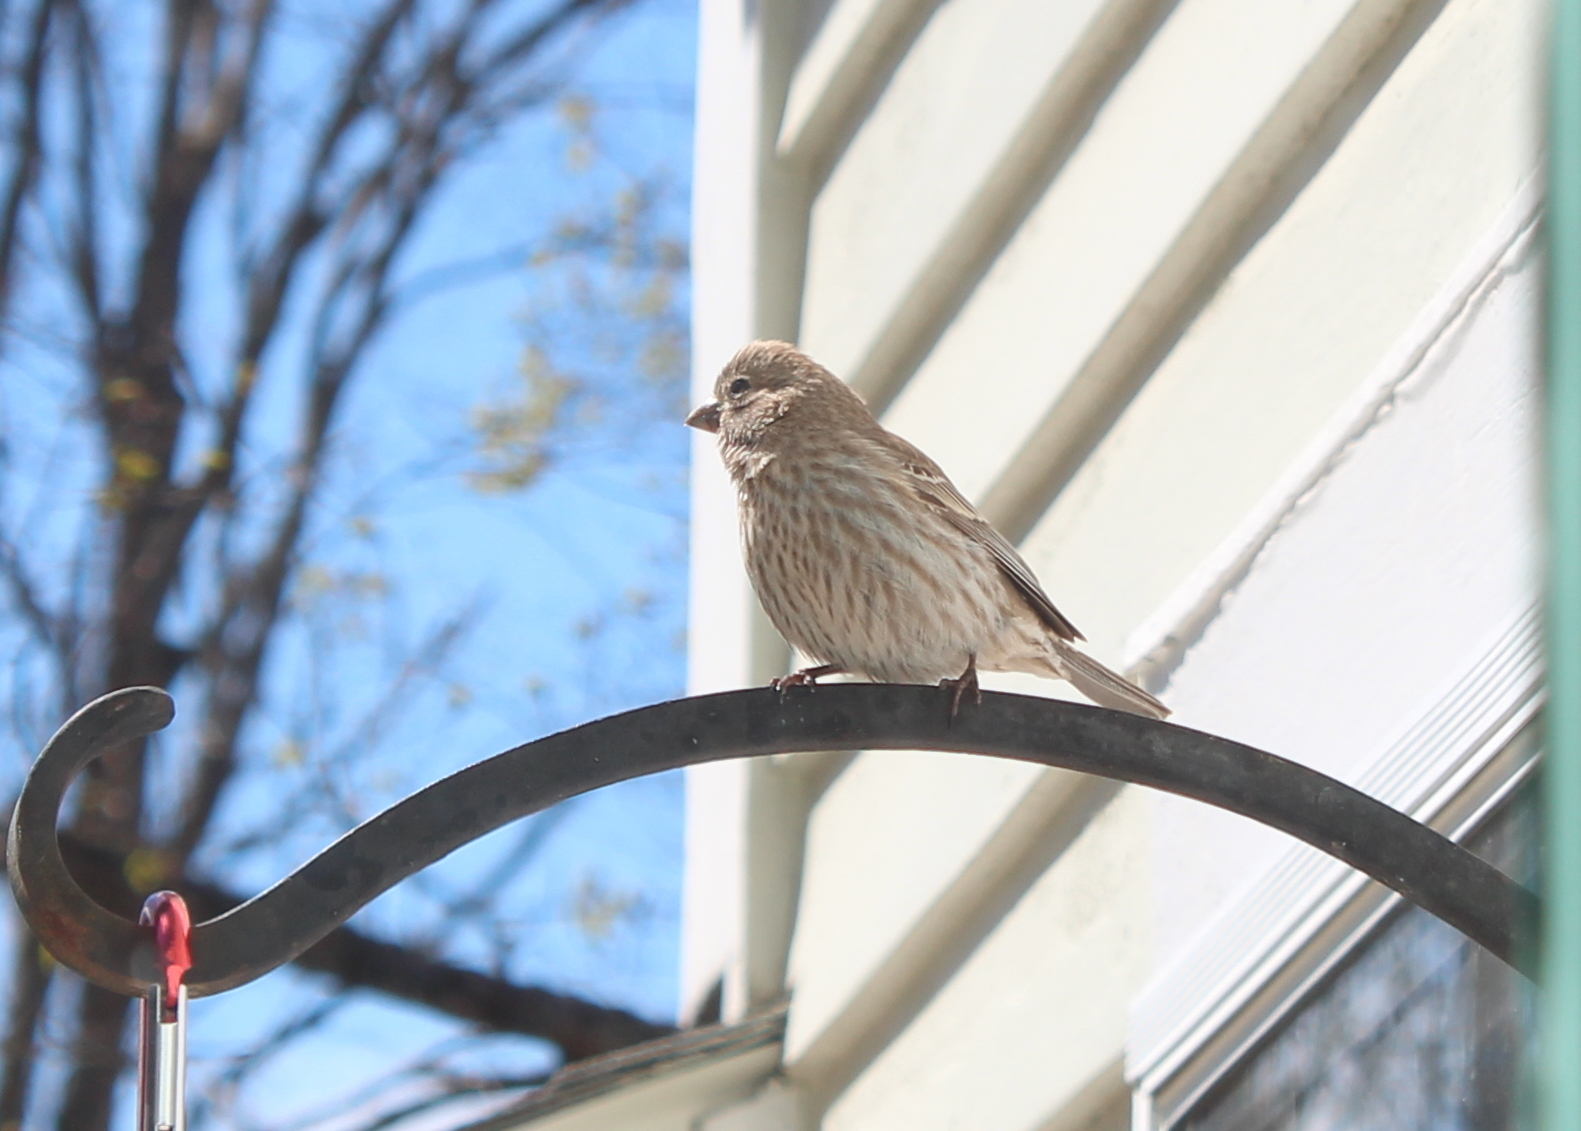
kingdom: Animalia
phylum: Chordata
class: Aves
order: Passeriformes
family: Fringillidae
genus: Haemorhous
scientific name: Haemorhous mexicanus
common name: House finch
